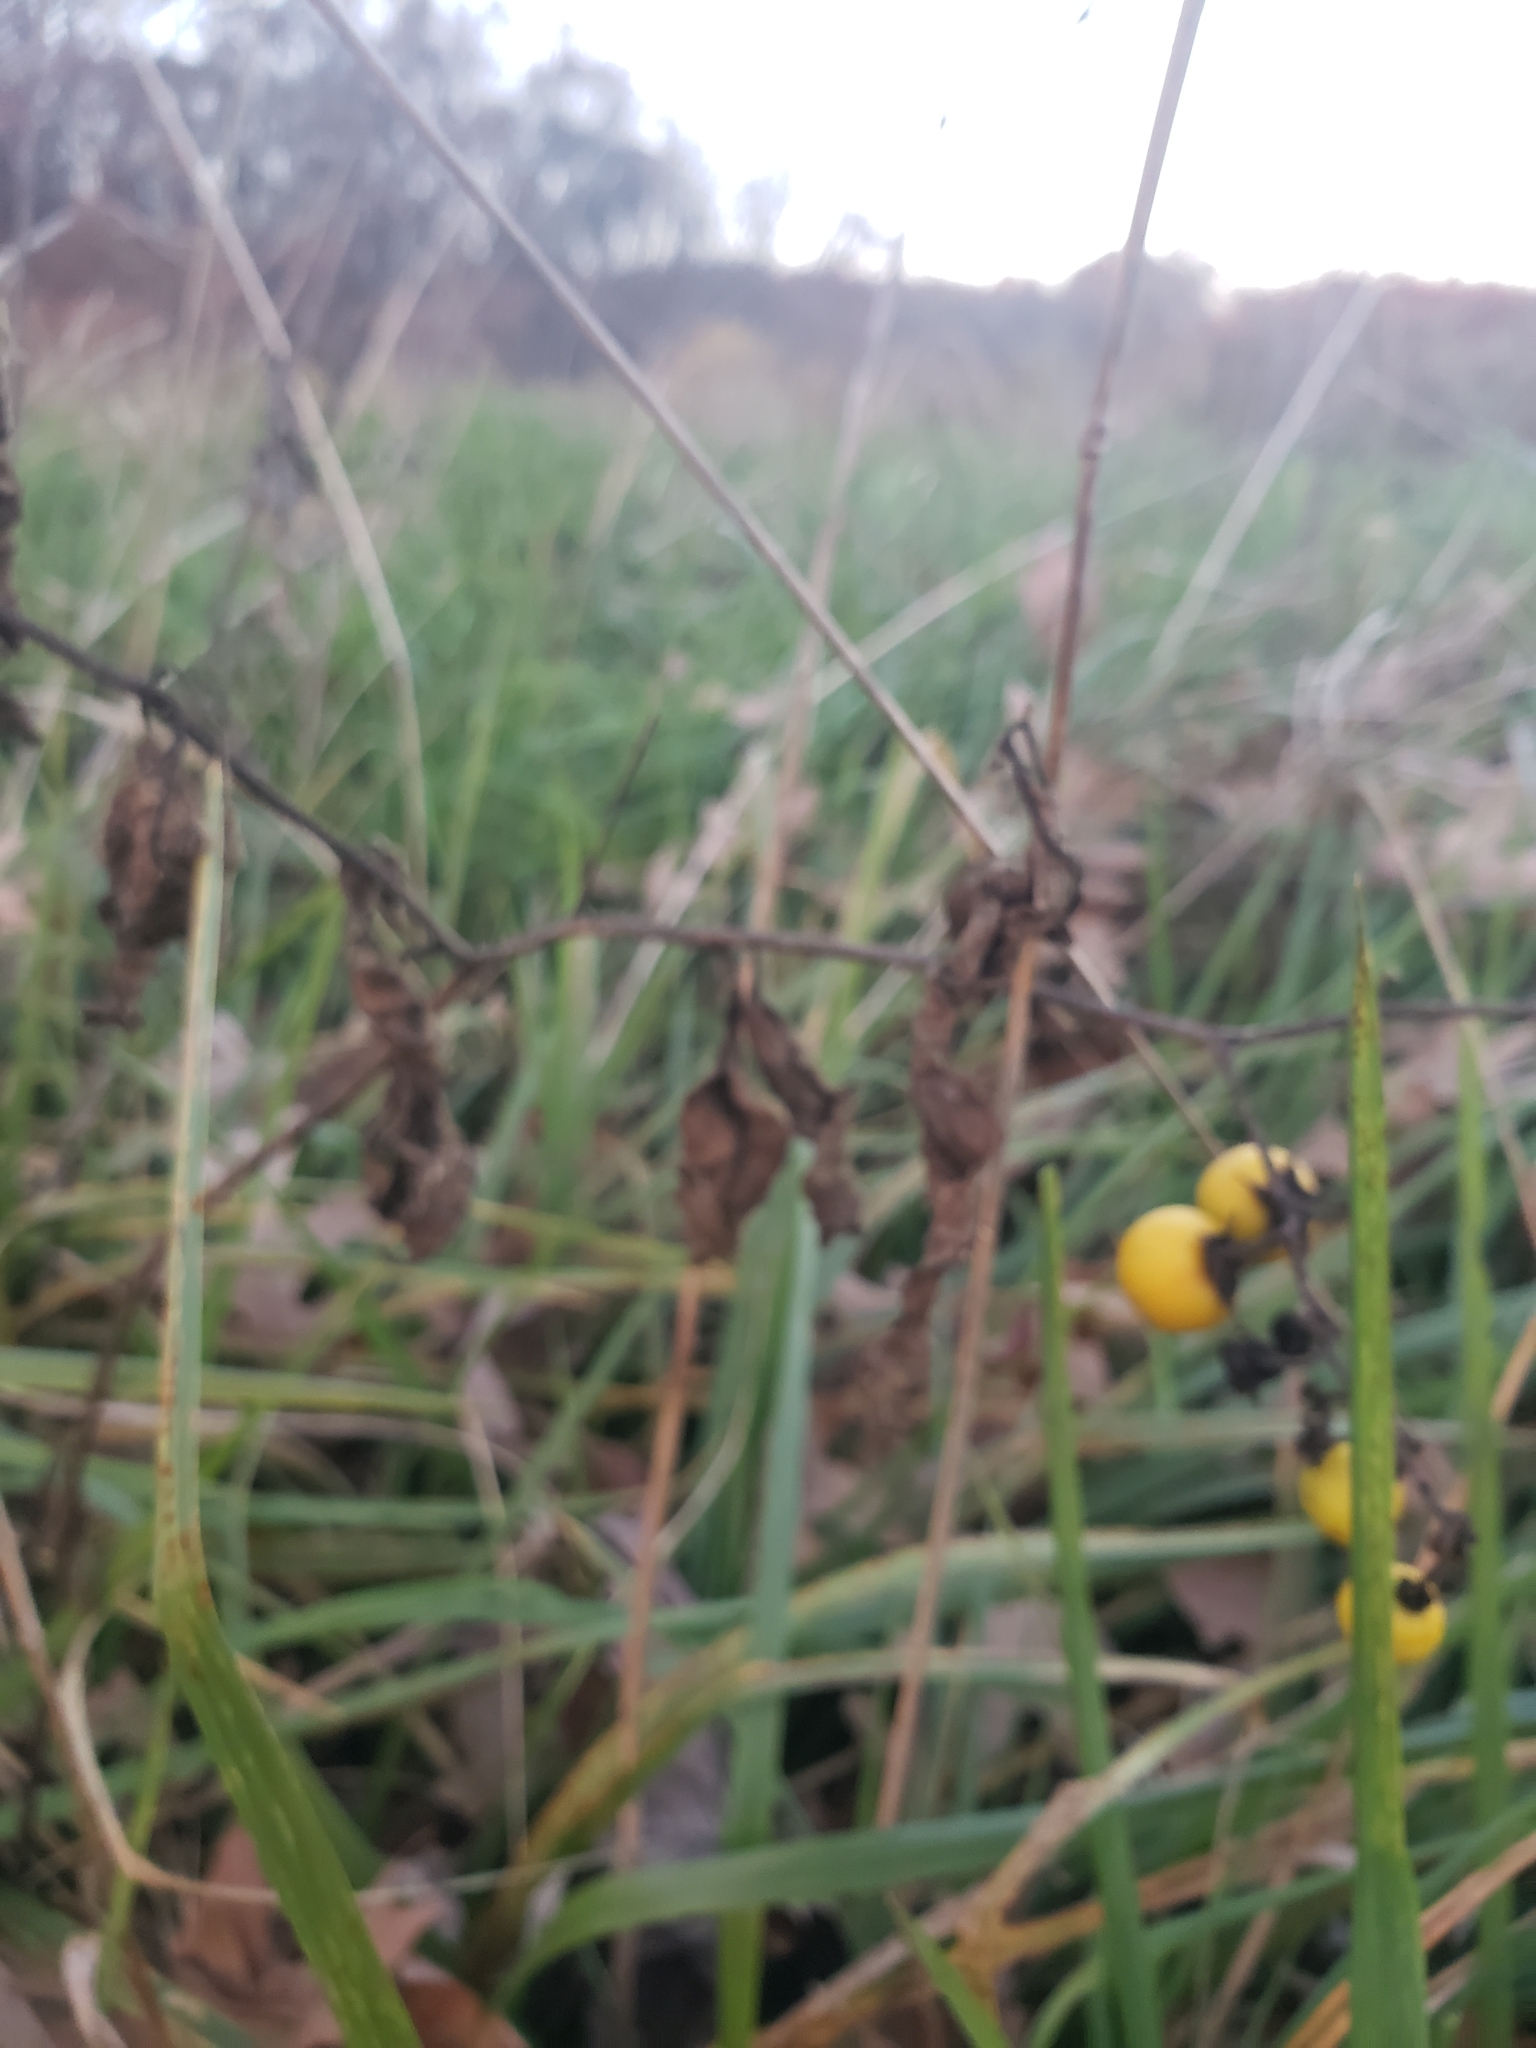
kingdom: Plantae
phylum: Tracheophyta
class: Magnoliopsida
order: Solanales
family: Solanaceae
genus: Solanum
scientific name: Solanum carolinense
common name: Horse-nettle
